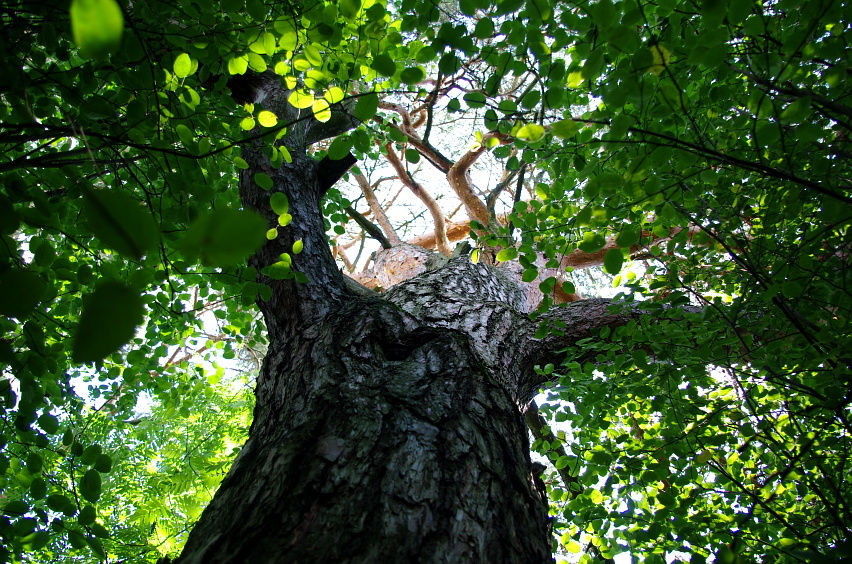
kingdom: Plantae
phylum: Tracheophyta
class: Pinopsida
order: Pinales
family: Pinaceae
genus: Pinus
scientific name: Pinus sylvestris
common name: Scots pine
